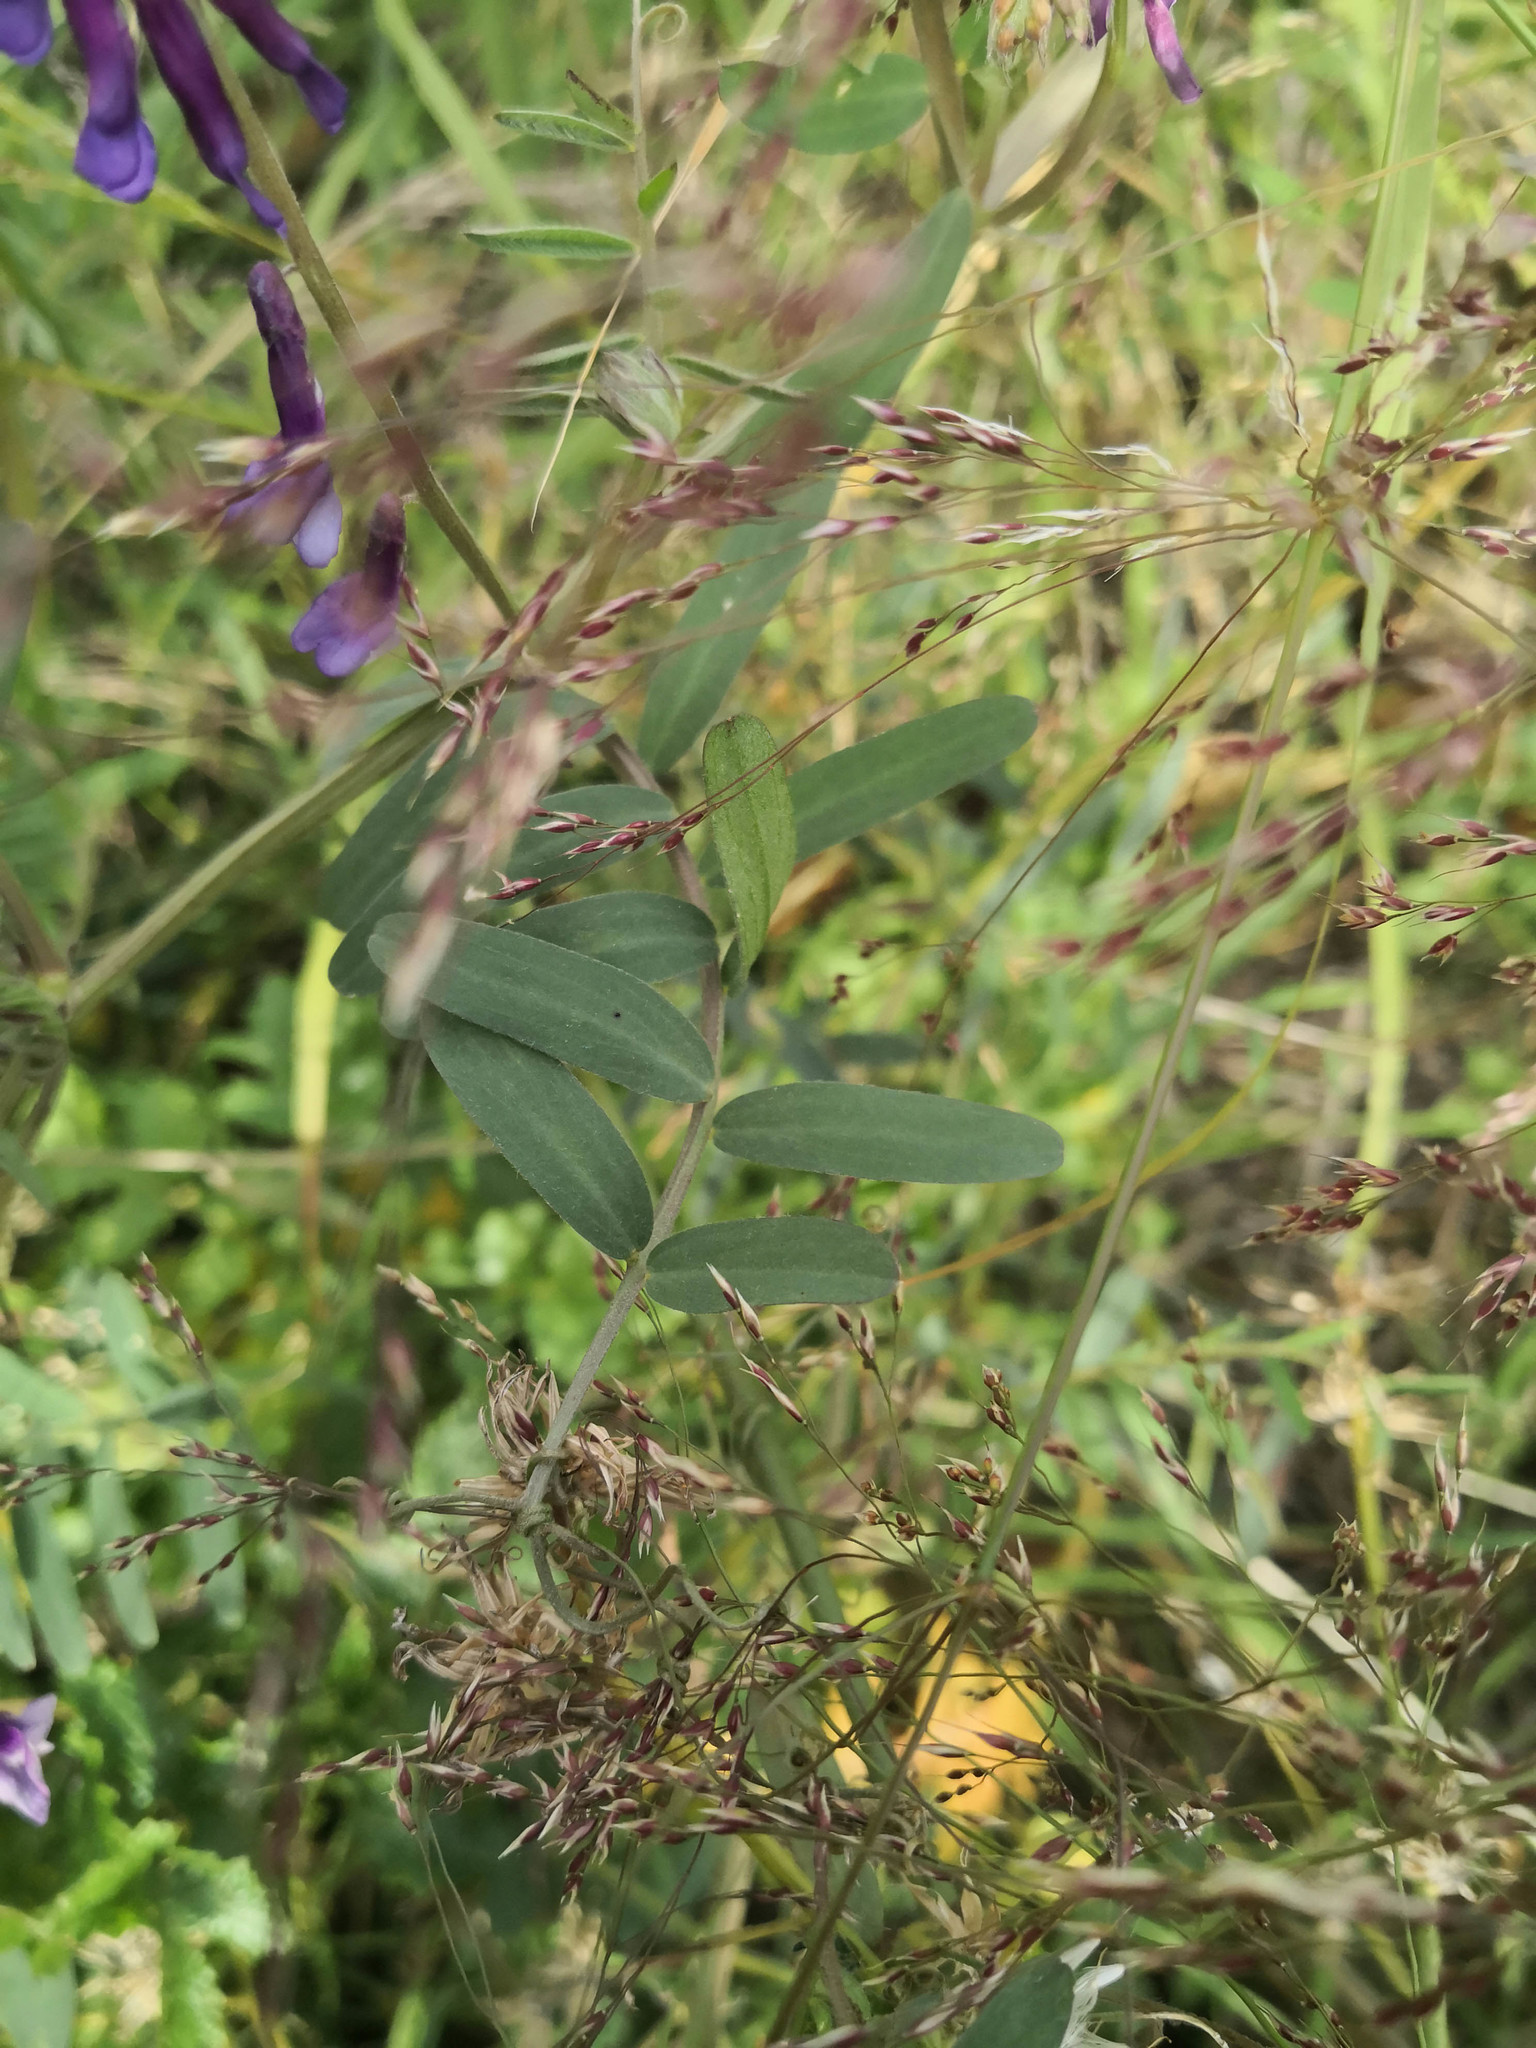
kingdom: Plantae
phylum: Tracheophyta
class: Magnoliopsida
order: Fabales
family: Fabaceae
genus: Vicia
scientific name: Vicia villosa
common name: Fodder vetch
